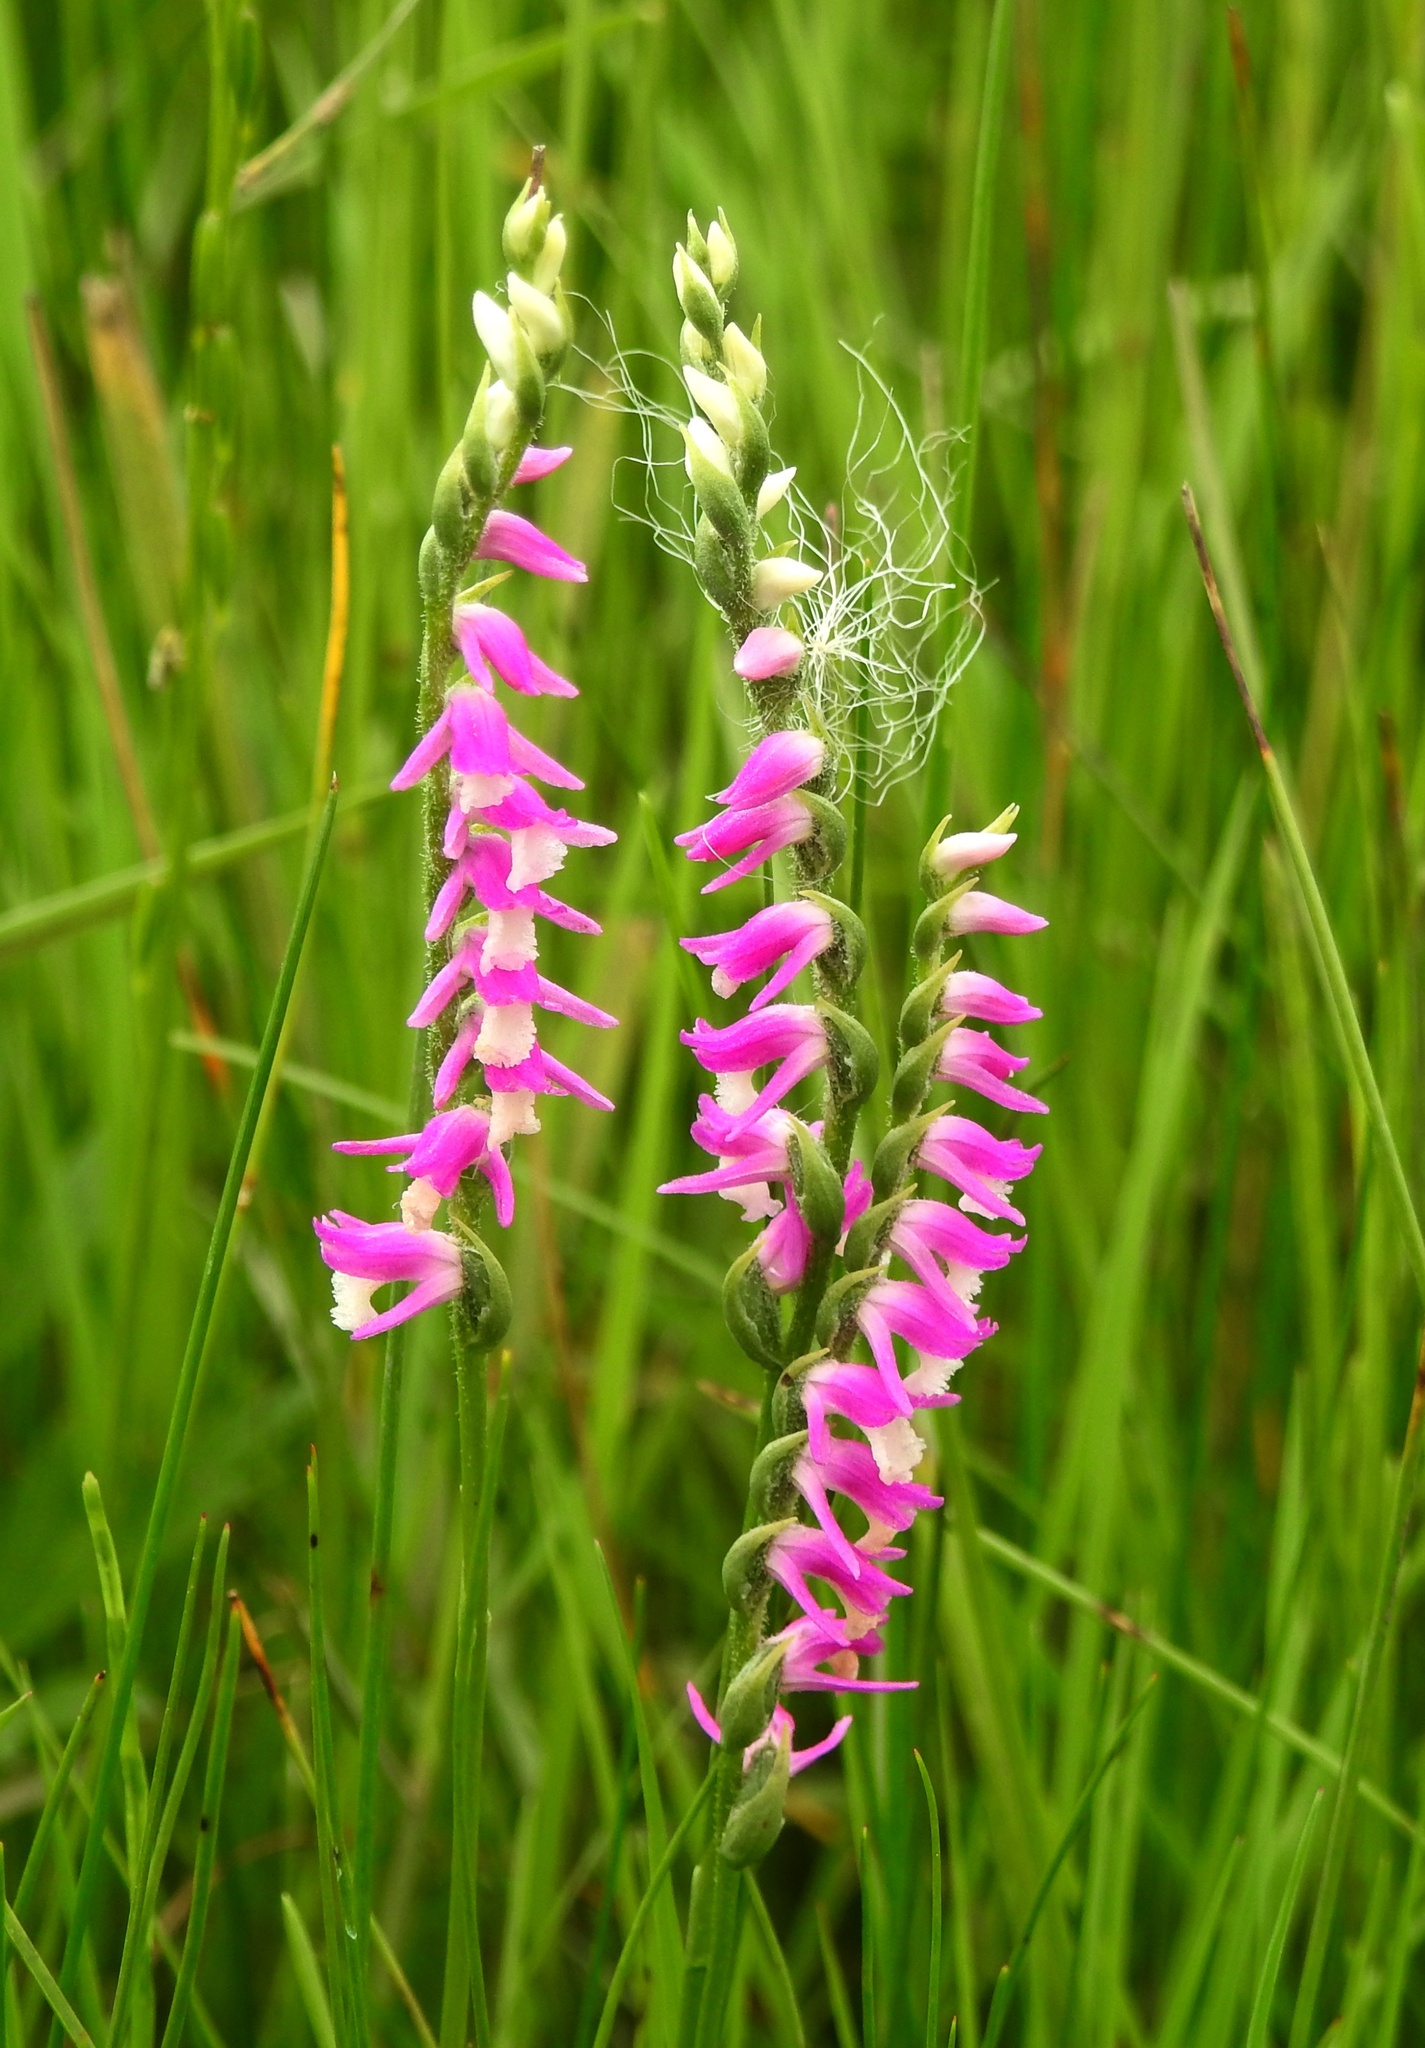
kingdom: Plantae
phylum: Tracheophyta
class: Liliopsida
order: Asparagales
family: Orchidaceae
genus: Spiranthes
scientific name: Spiranthes australis
